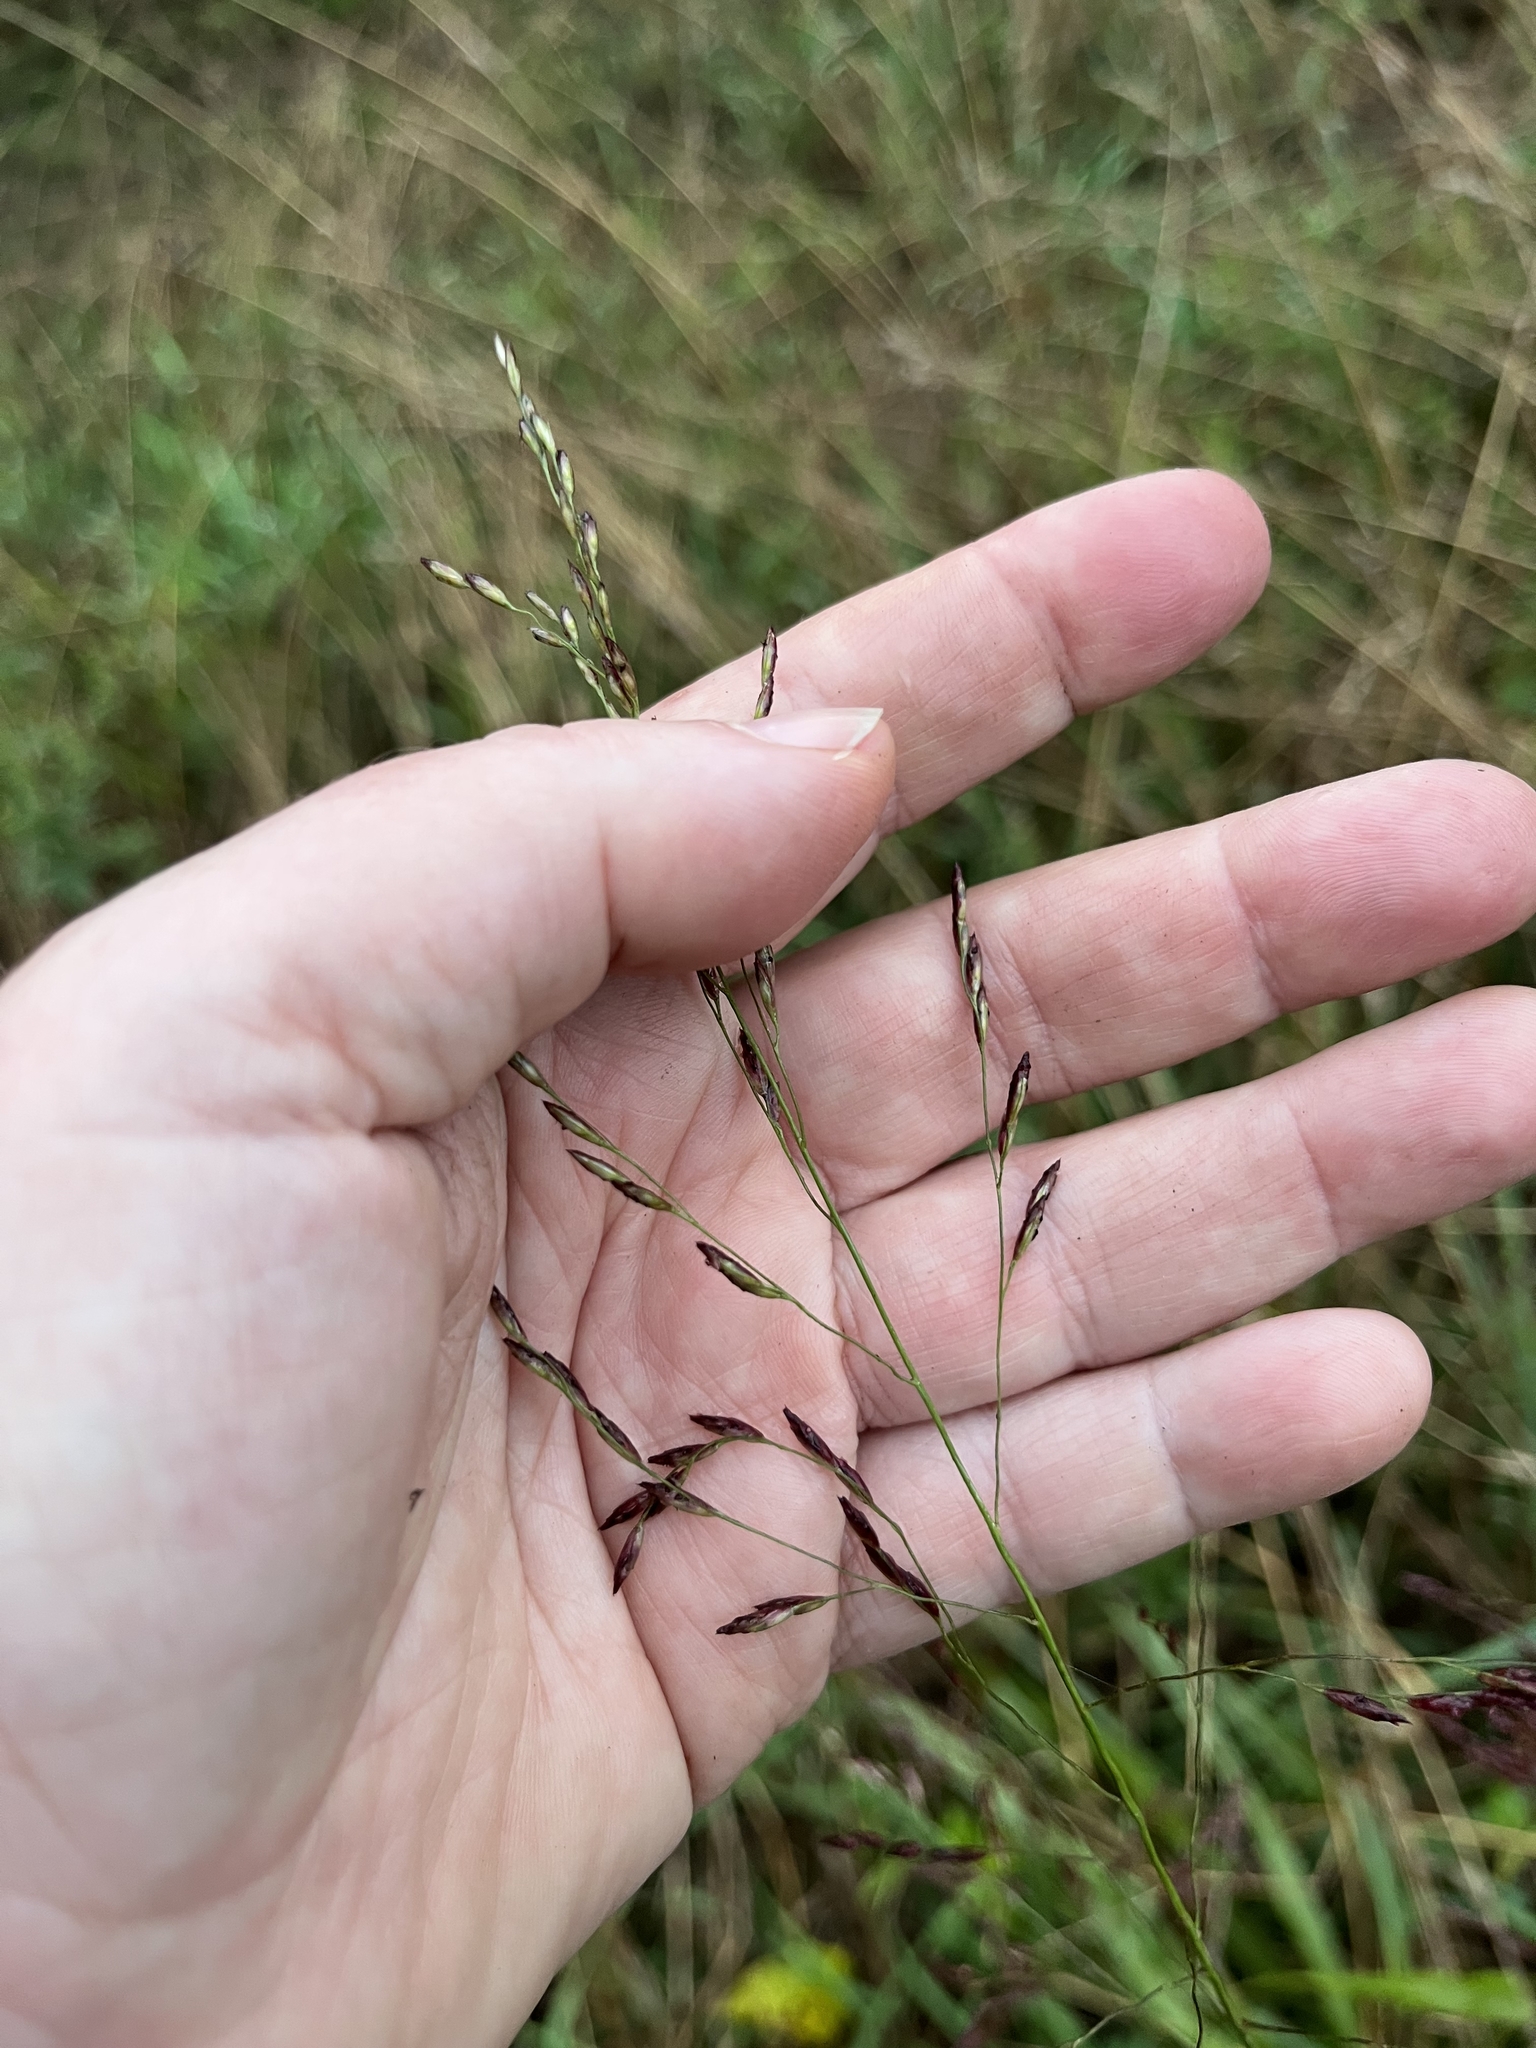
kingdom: Plantae
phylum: Tracheophyta
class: Liliopsida
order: Poales
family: Poaceae
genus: Tridens
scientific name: Tridens flavus
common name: Purpletop
